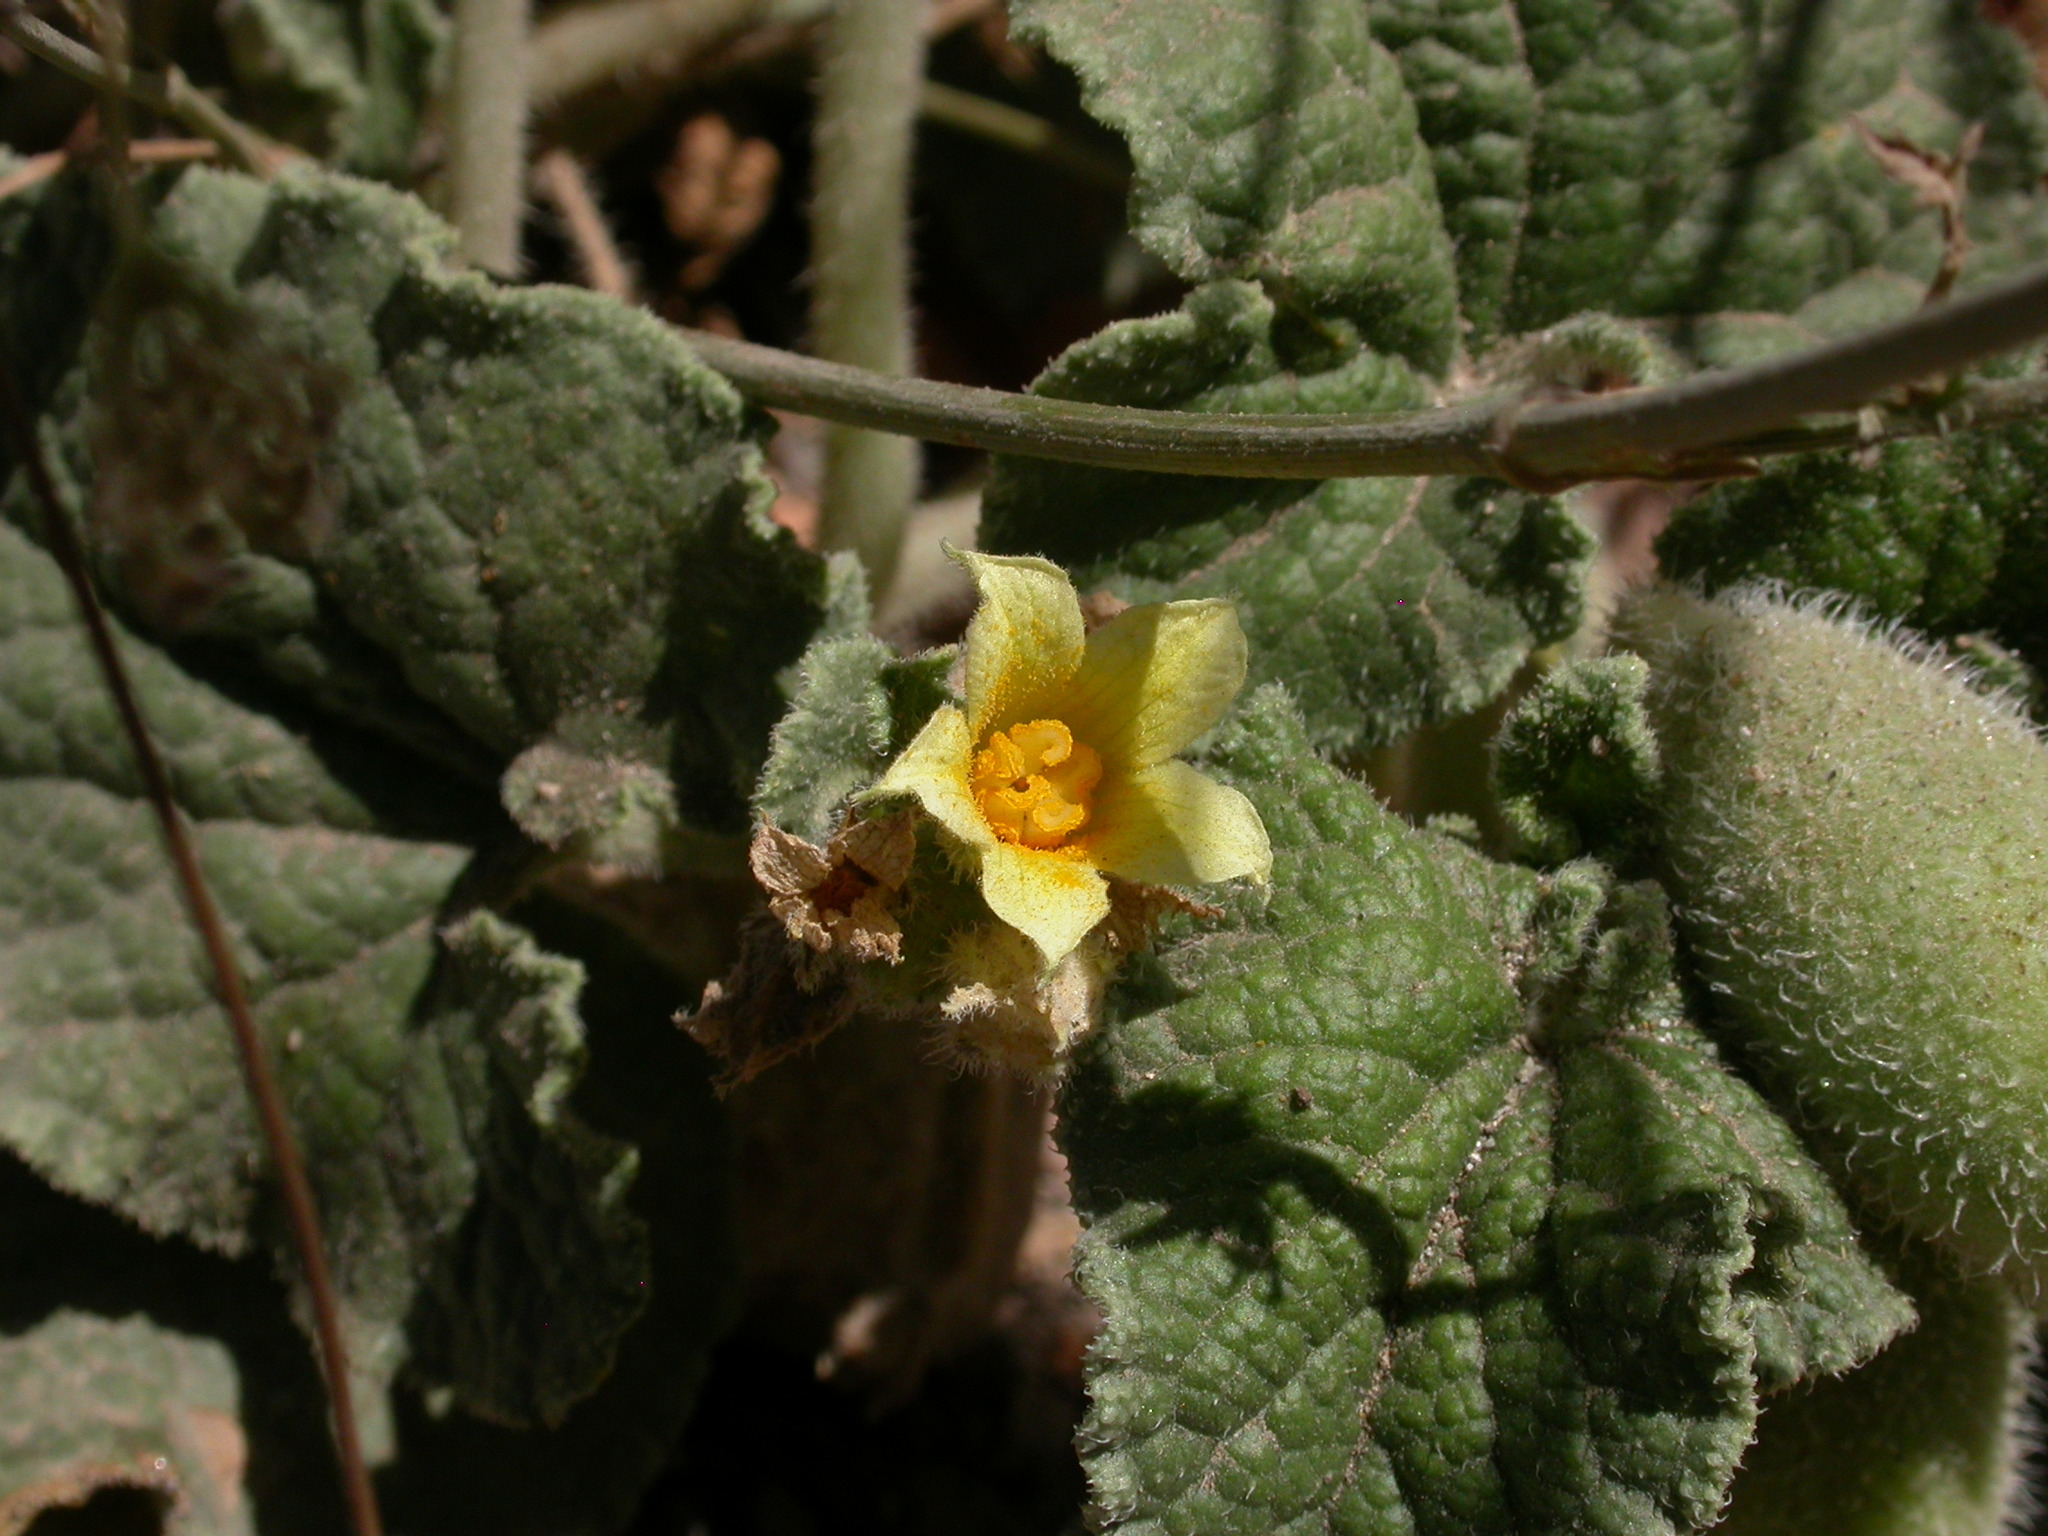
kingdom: Plantae
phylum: Tracheophyta
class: Magnoliopsida
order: Cucurbitales
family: Cucurbitaceae
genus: Ecballium
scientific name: Ecballium elaterium
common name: Squirting cucumber
